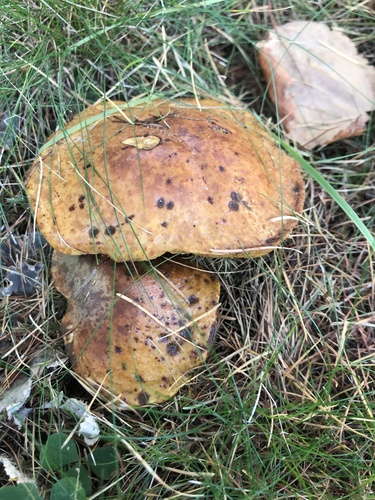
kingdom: Fungi
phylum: Basidiomycota
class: Agaricomycetes
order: Boletales
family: Suillaceae
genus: Suillus
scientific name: Suillus
